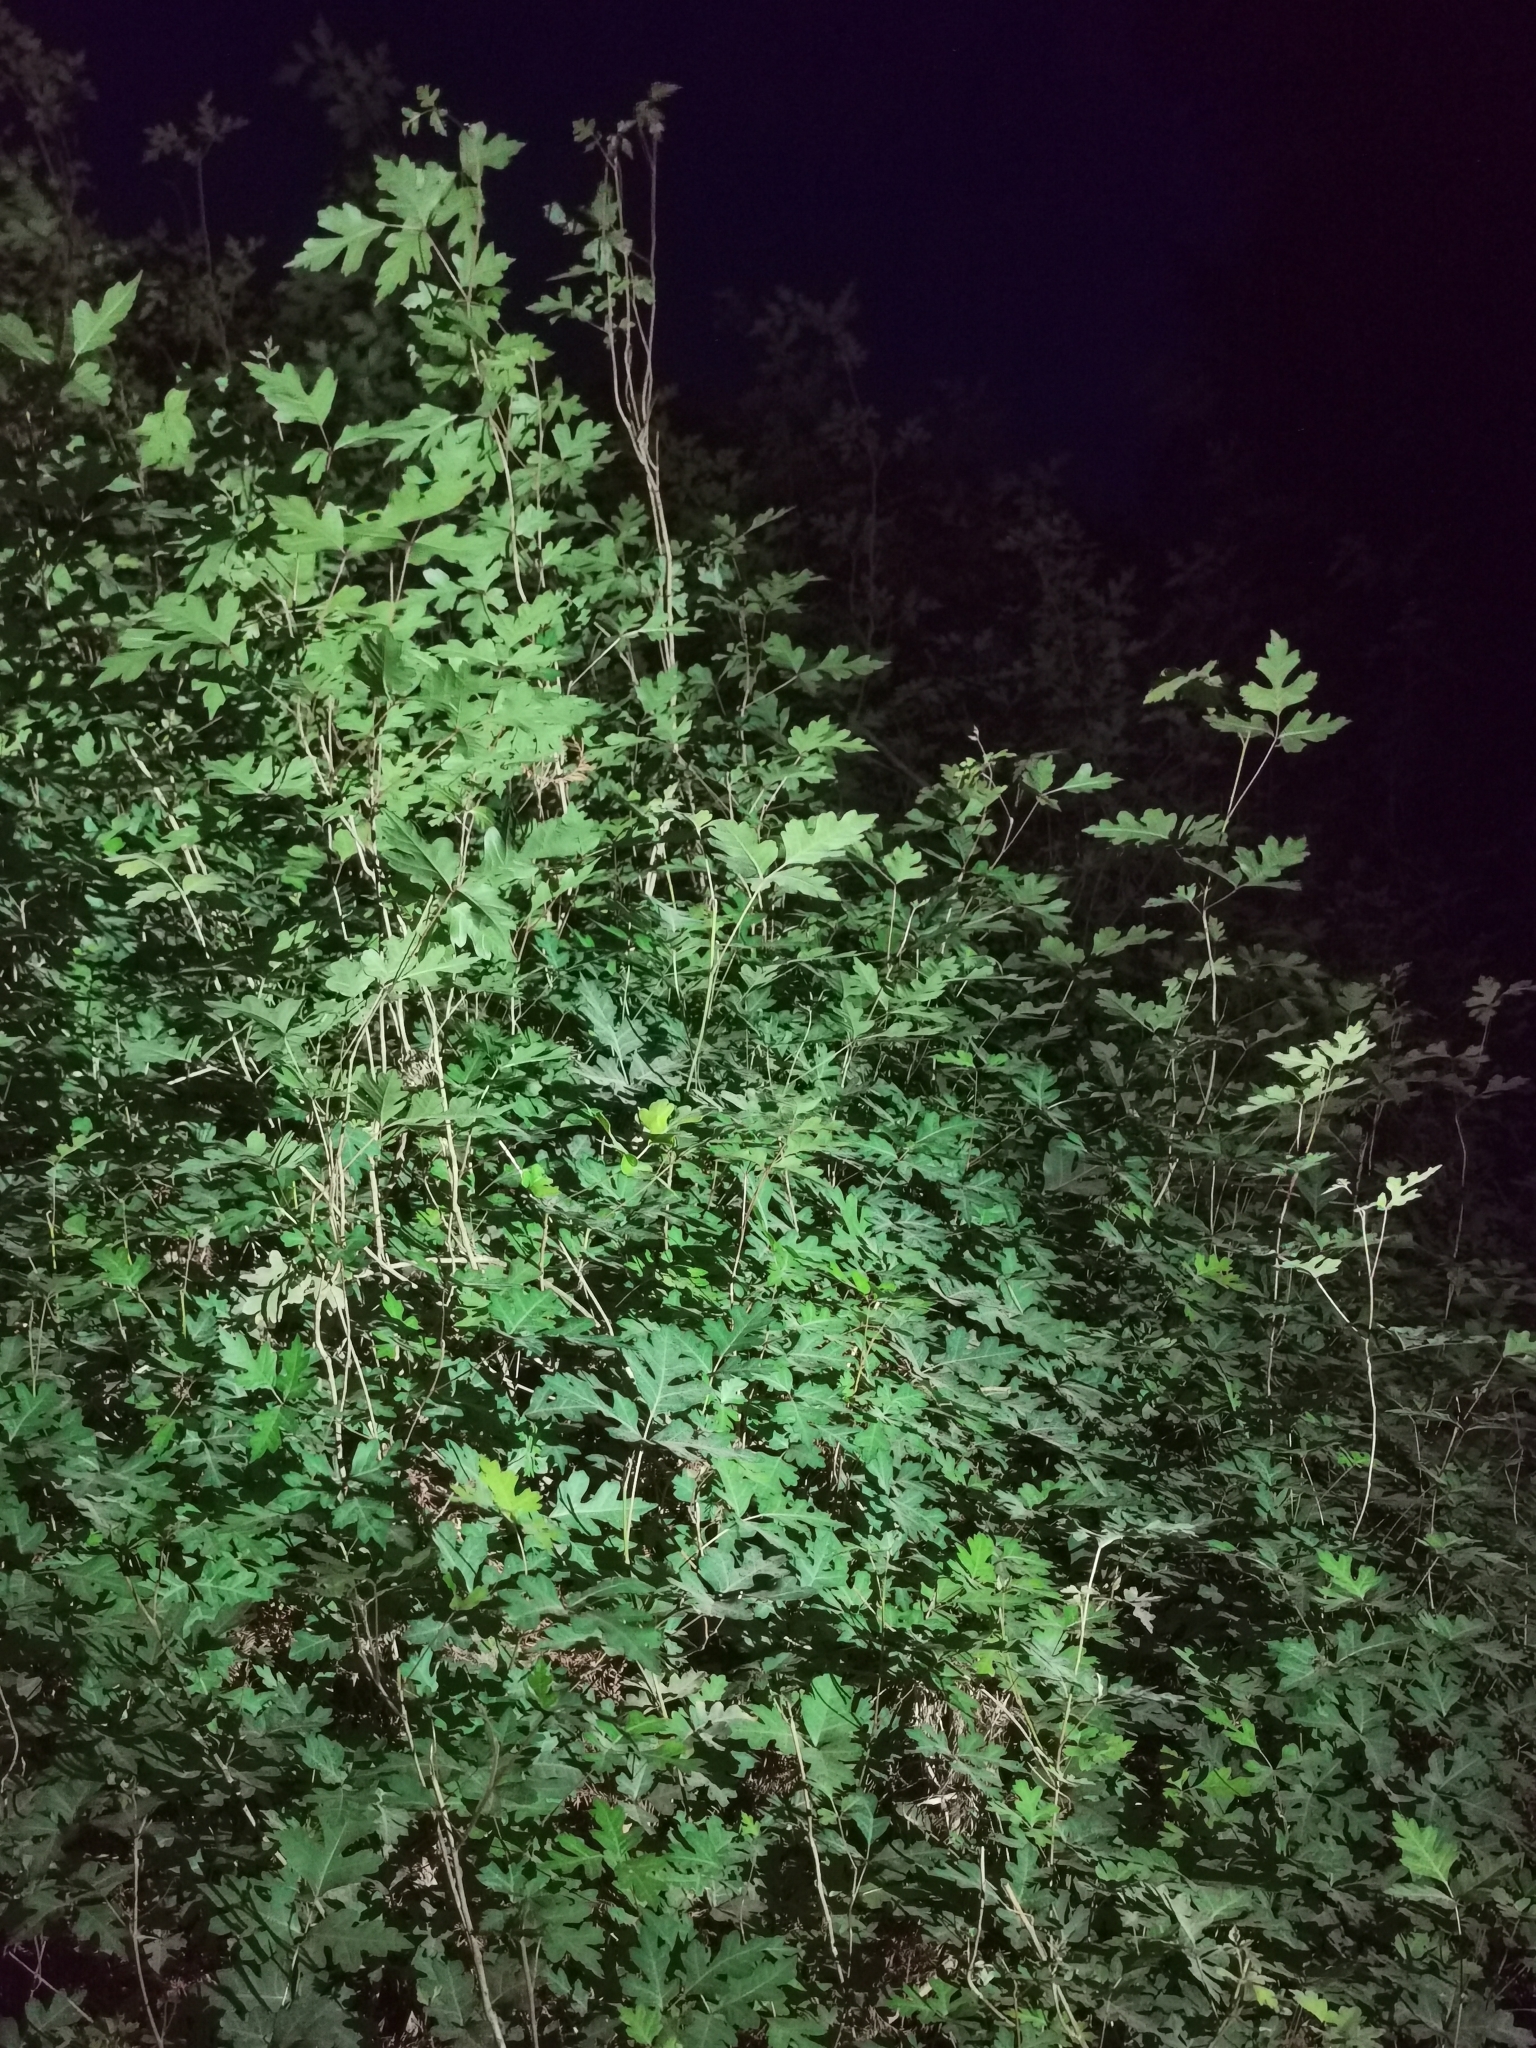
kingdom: Plantae
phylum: Tracheophyta
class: Magnoliopsida
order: Sapindales
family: Anacardiaceae
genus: Toxicodendron
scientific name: Toxicodendron radicans
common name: Poison ivy
